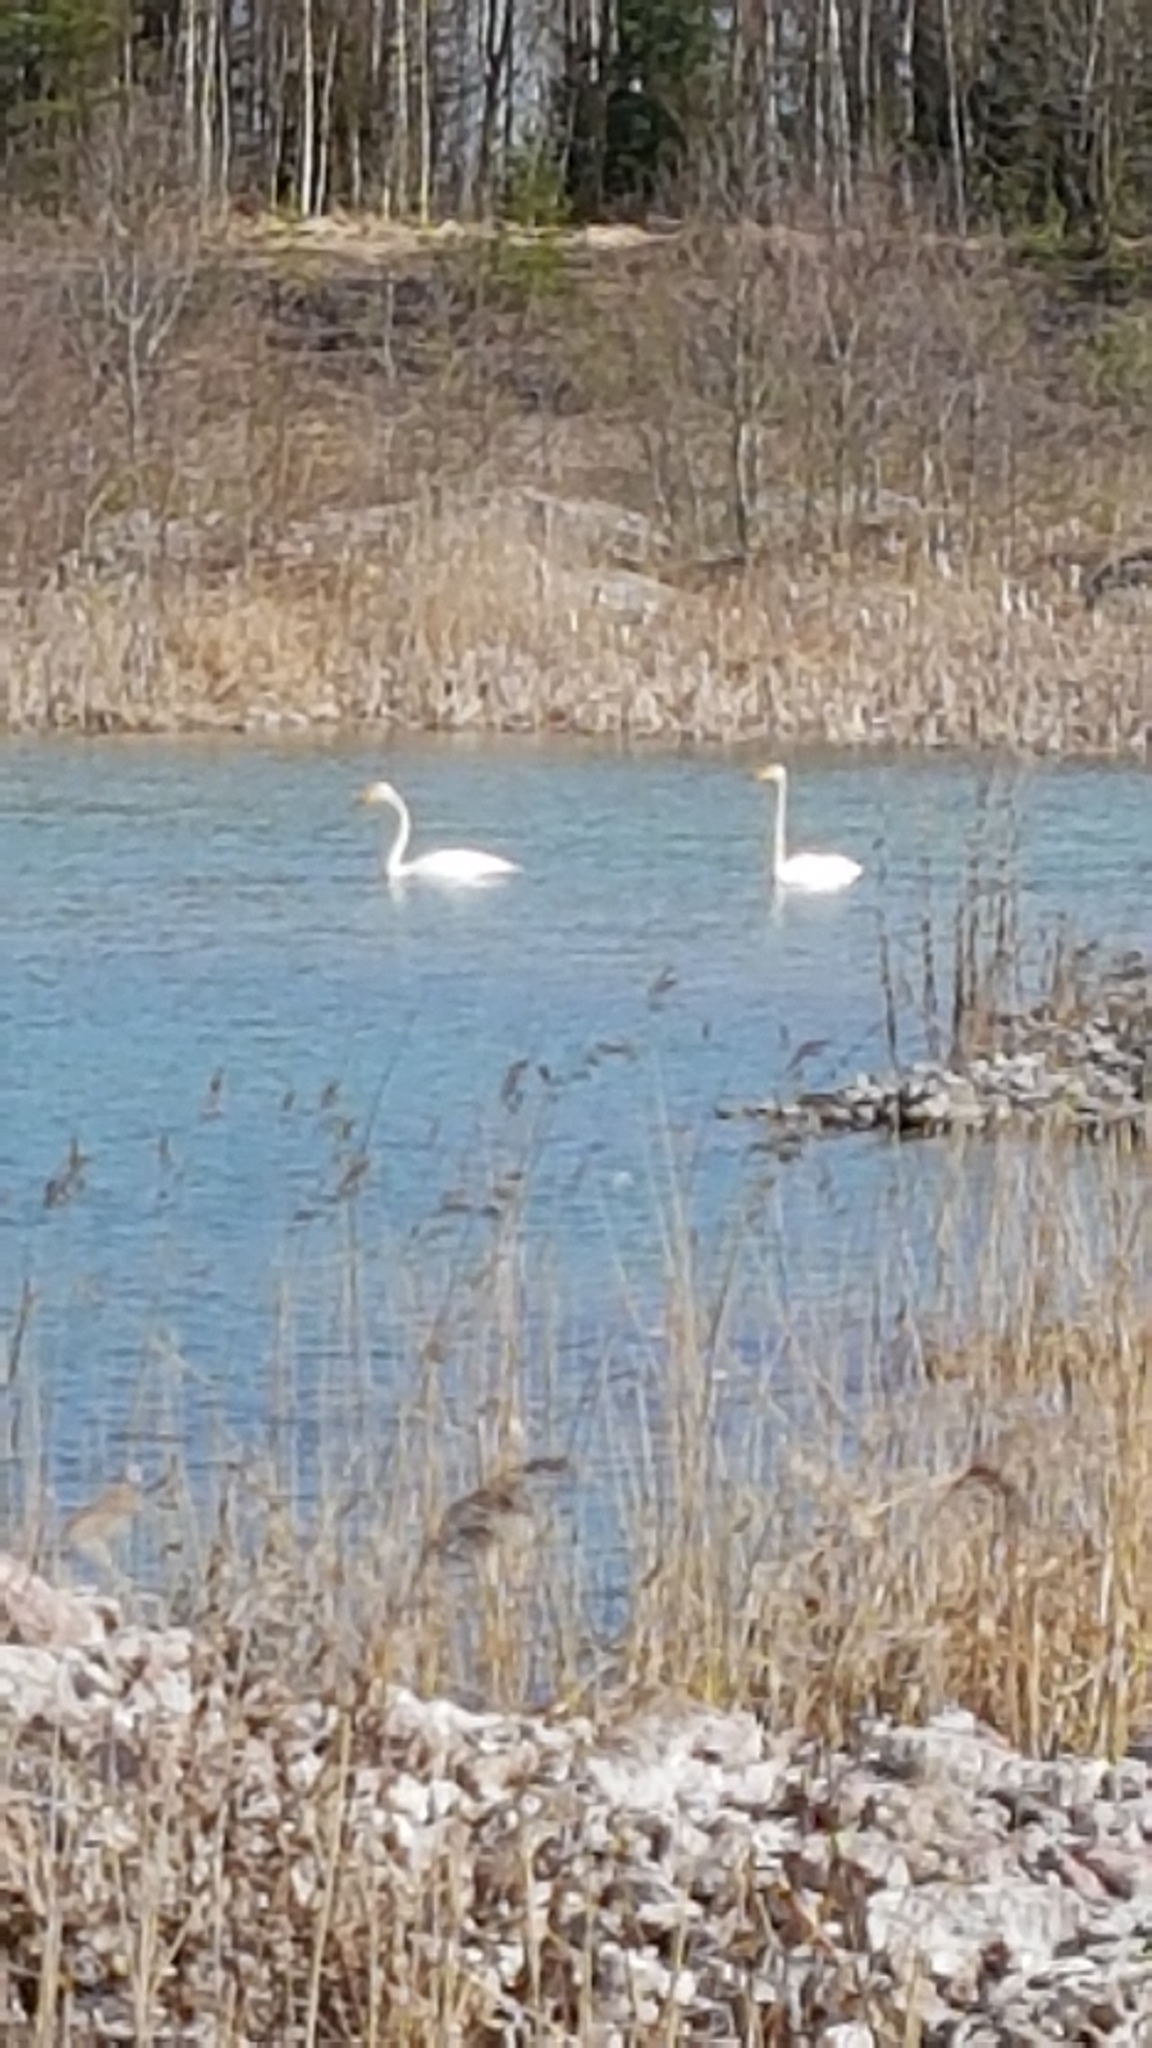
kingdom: Animalia
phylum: Chordata
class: Aves
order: Anseriformes
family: Anatidae
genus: Cygnus
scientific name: Cygnus cygnus
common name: Whooper swan
